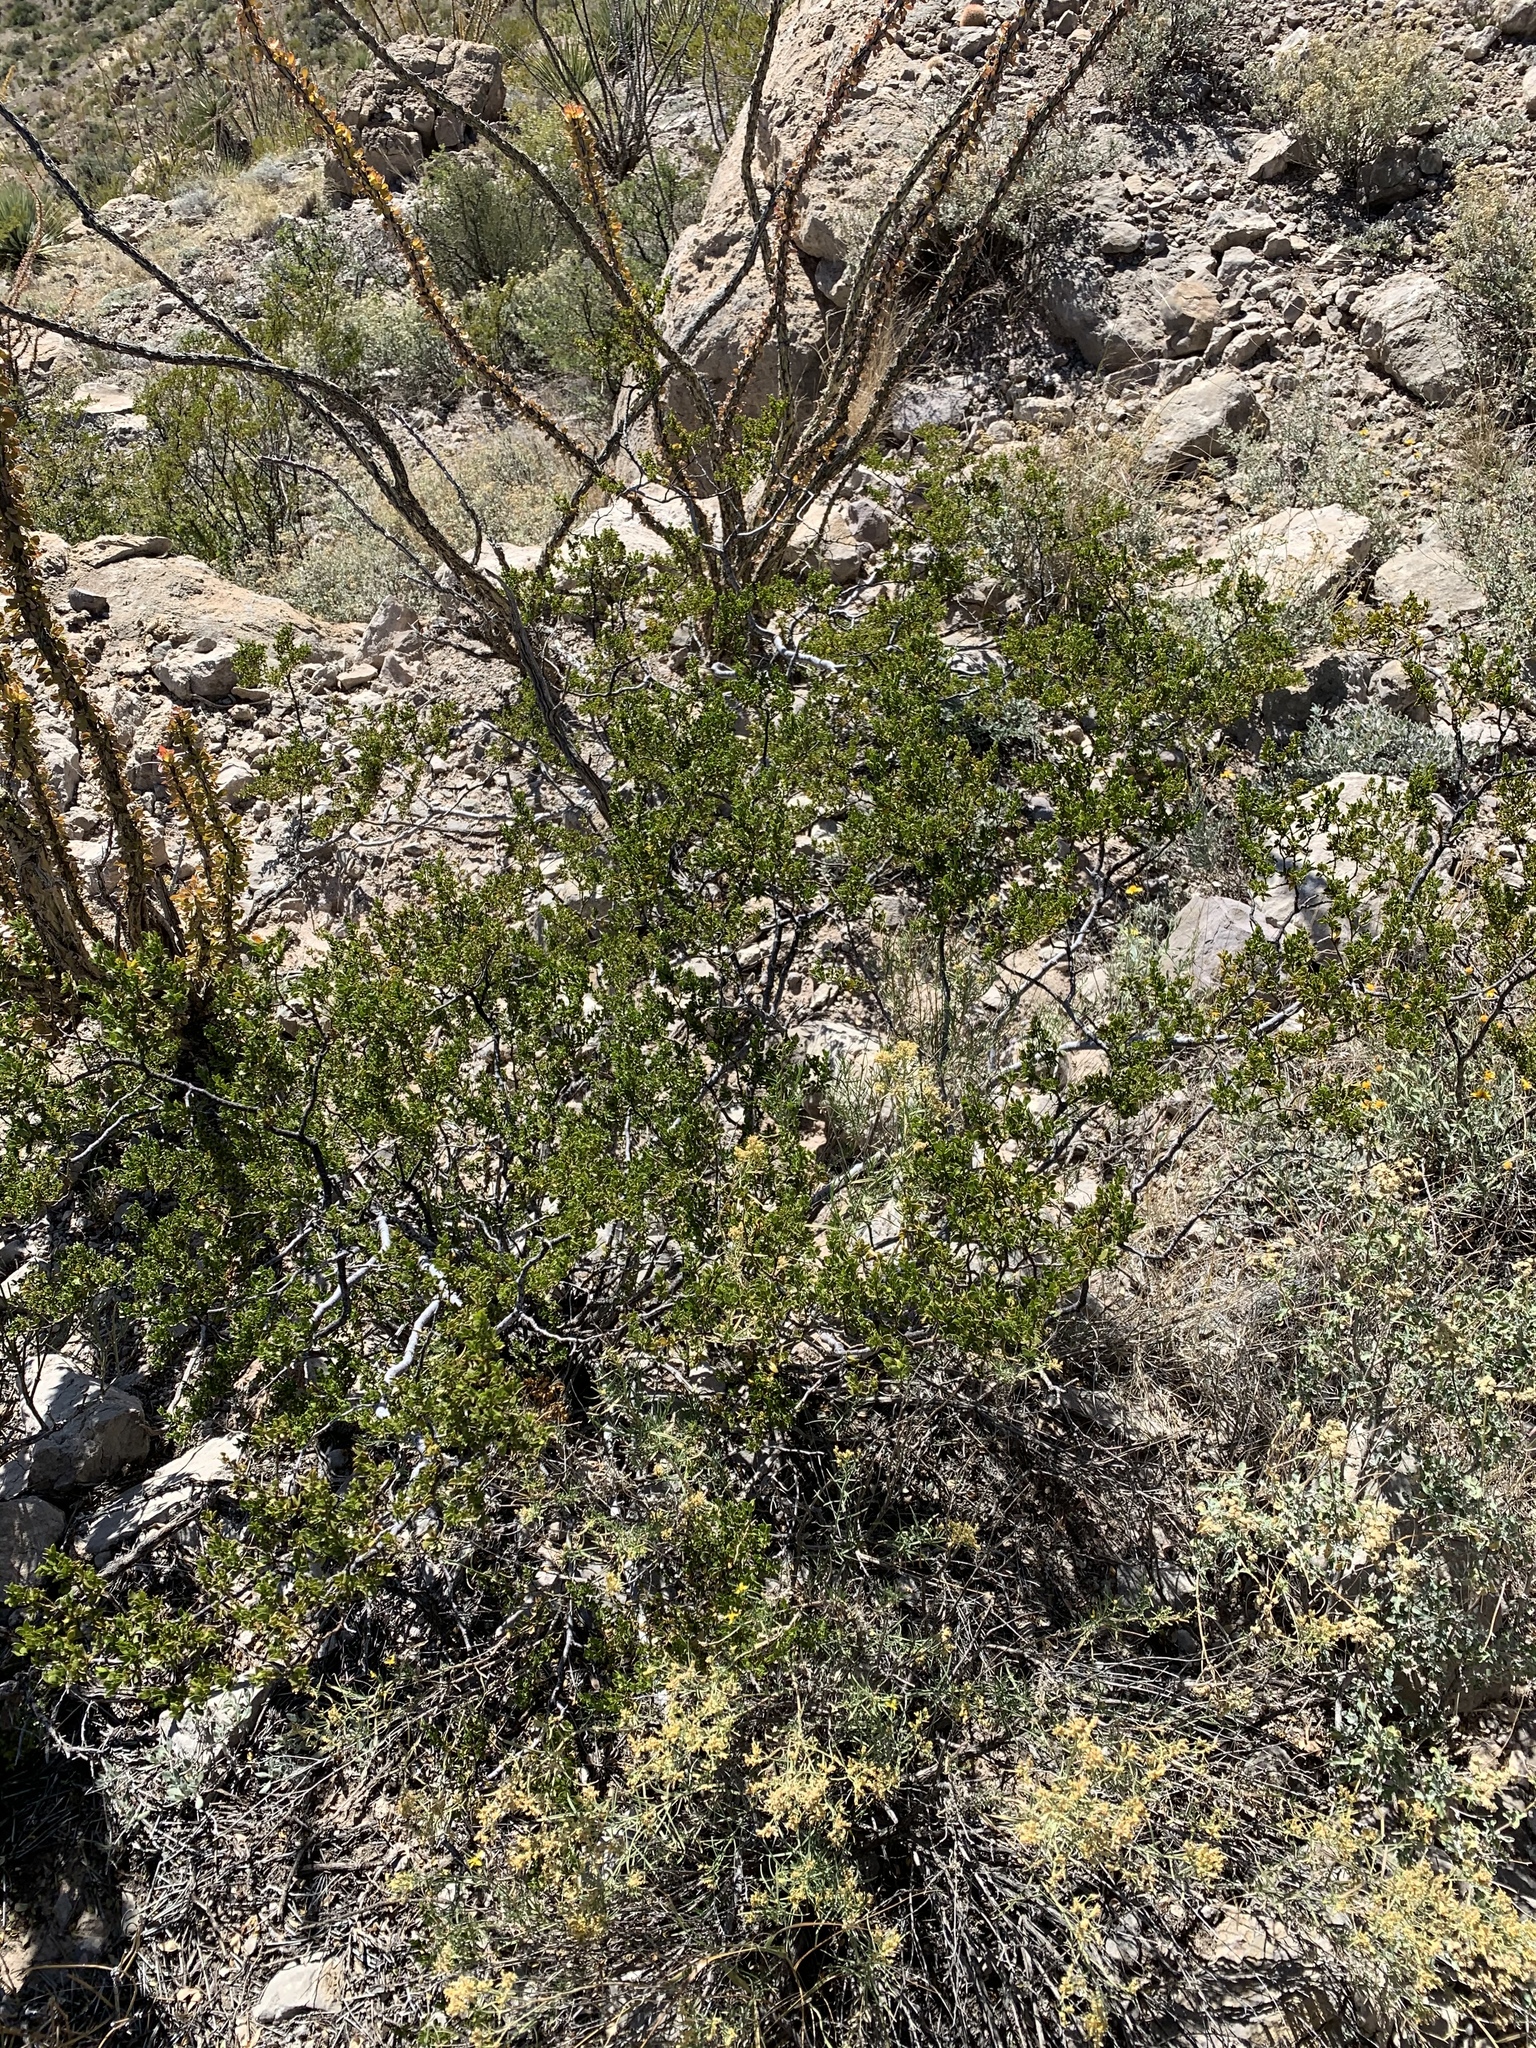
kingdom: Plantae
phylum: Tracheophyta
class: Magnoliopsida
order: Zygophyllales
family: Zygophyllaceae
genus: Larrea
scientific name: Larrea tridentata
